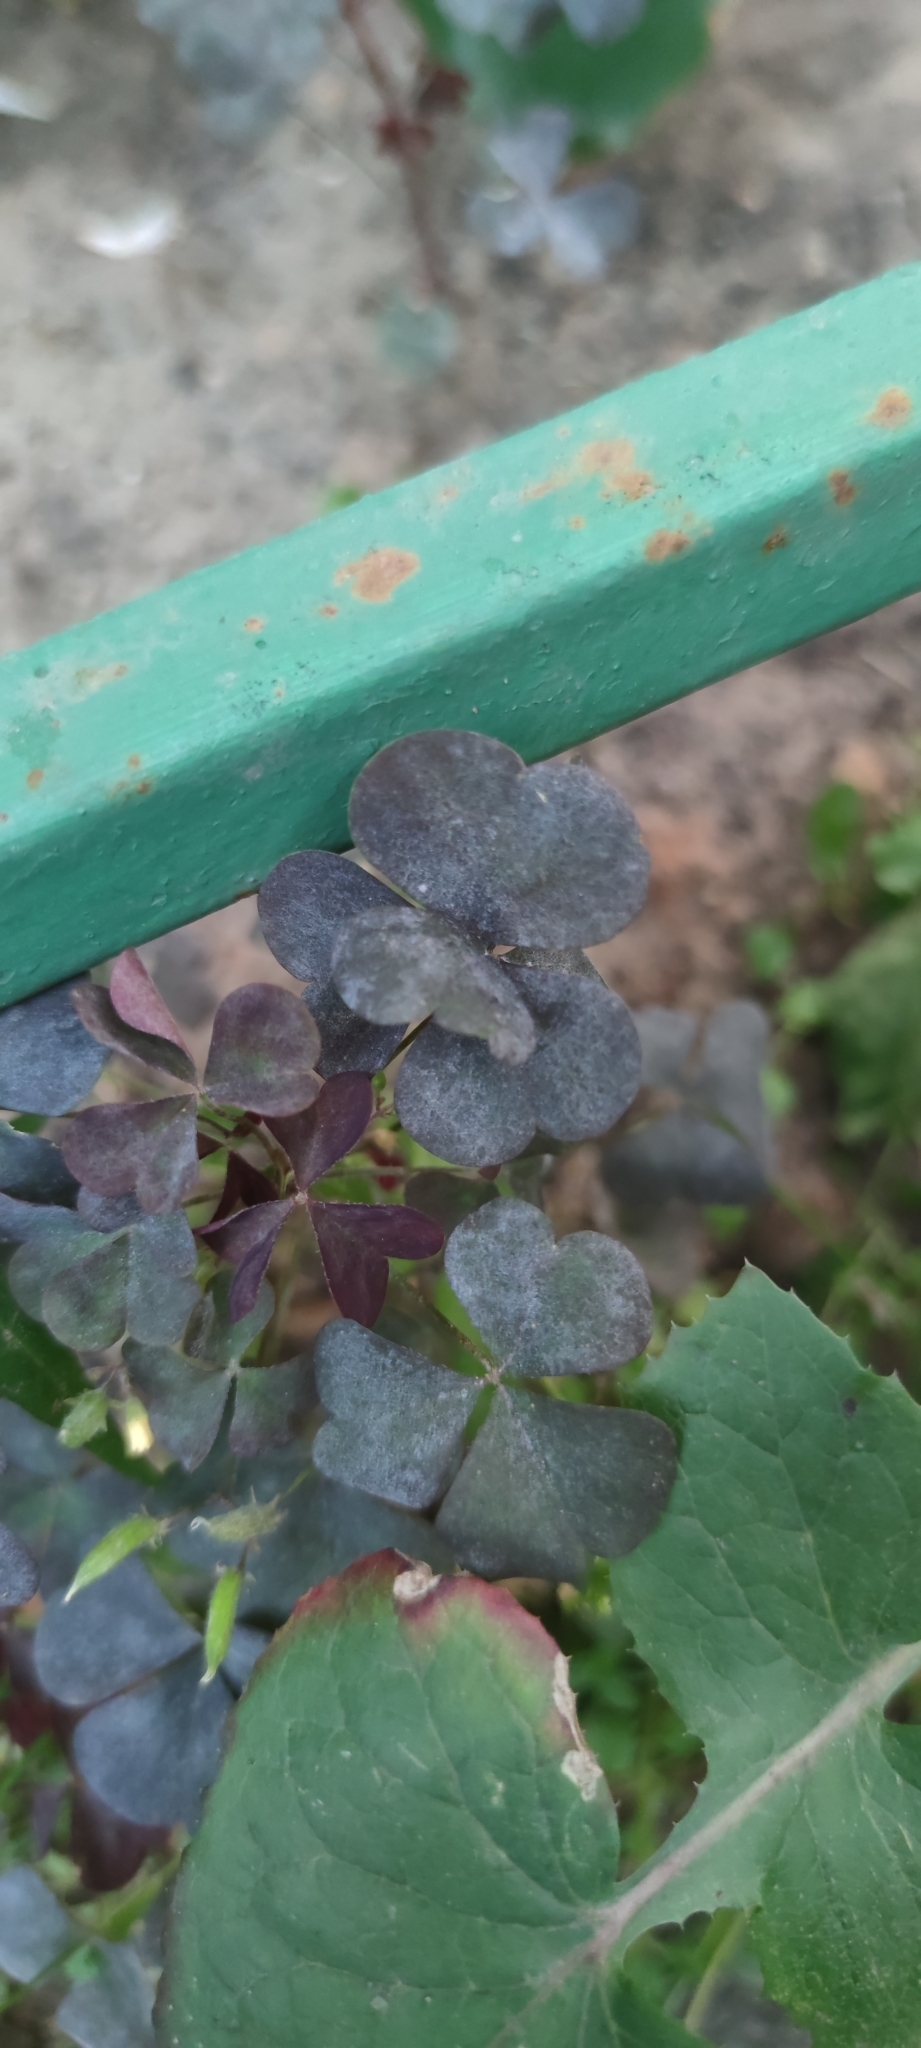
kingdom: Plantae
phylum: Tracheophyta
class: Magnoliopsida
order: Oxalidales
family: Oxalidaceae
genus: Oxalis
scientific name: Oxalis stricta
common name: Upright yellow-sorrel
